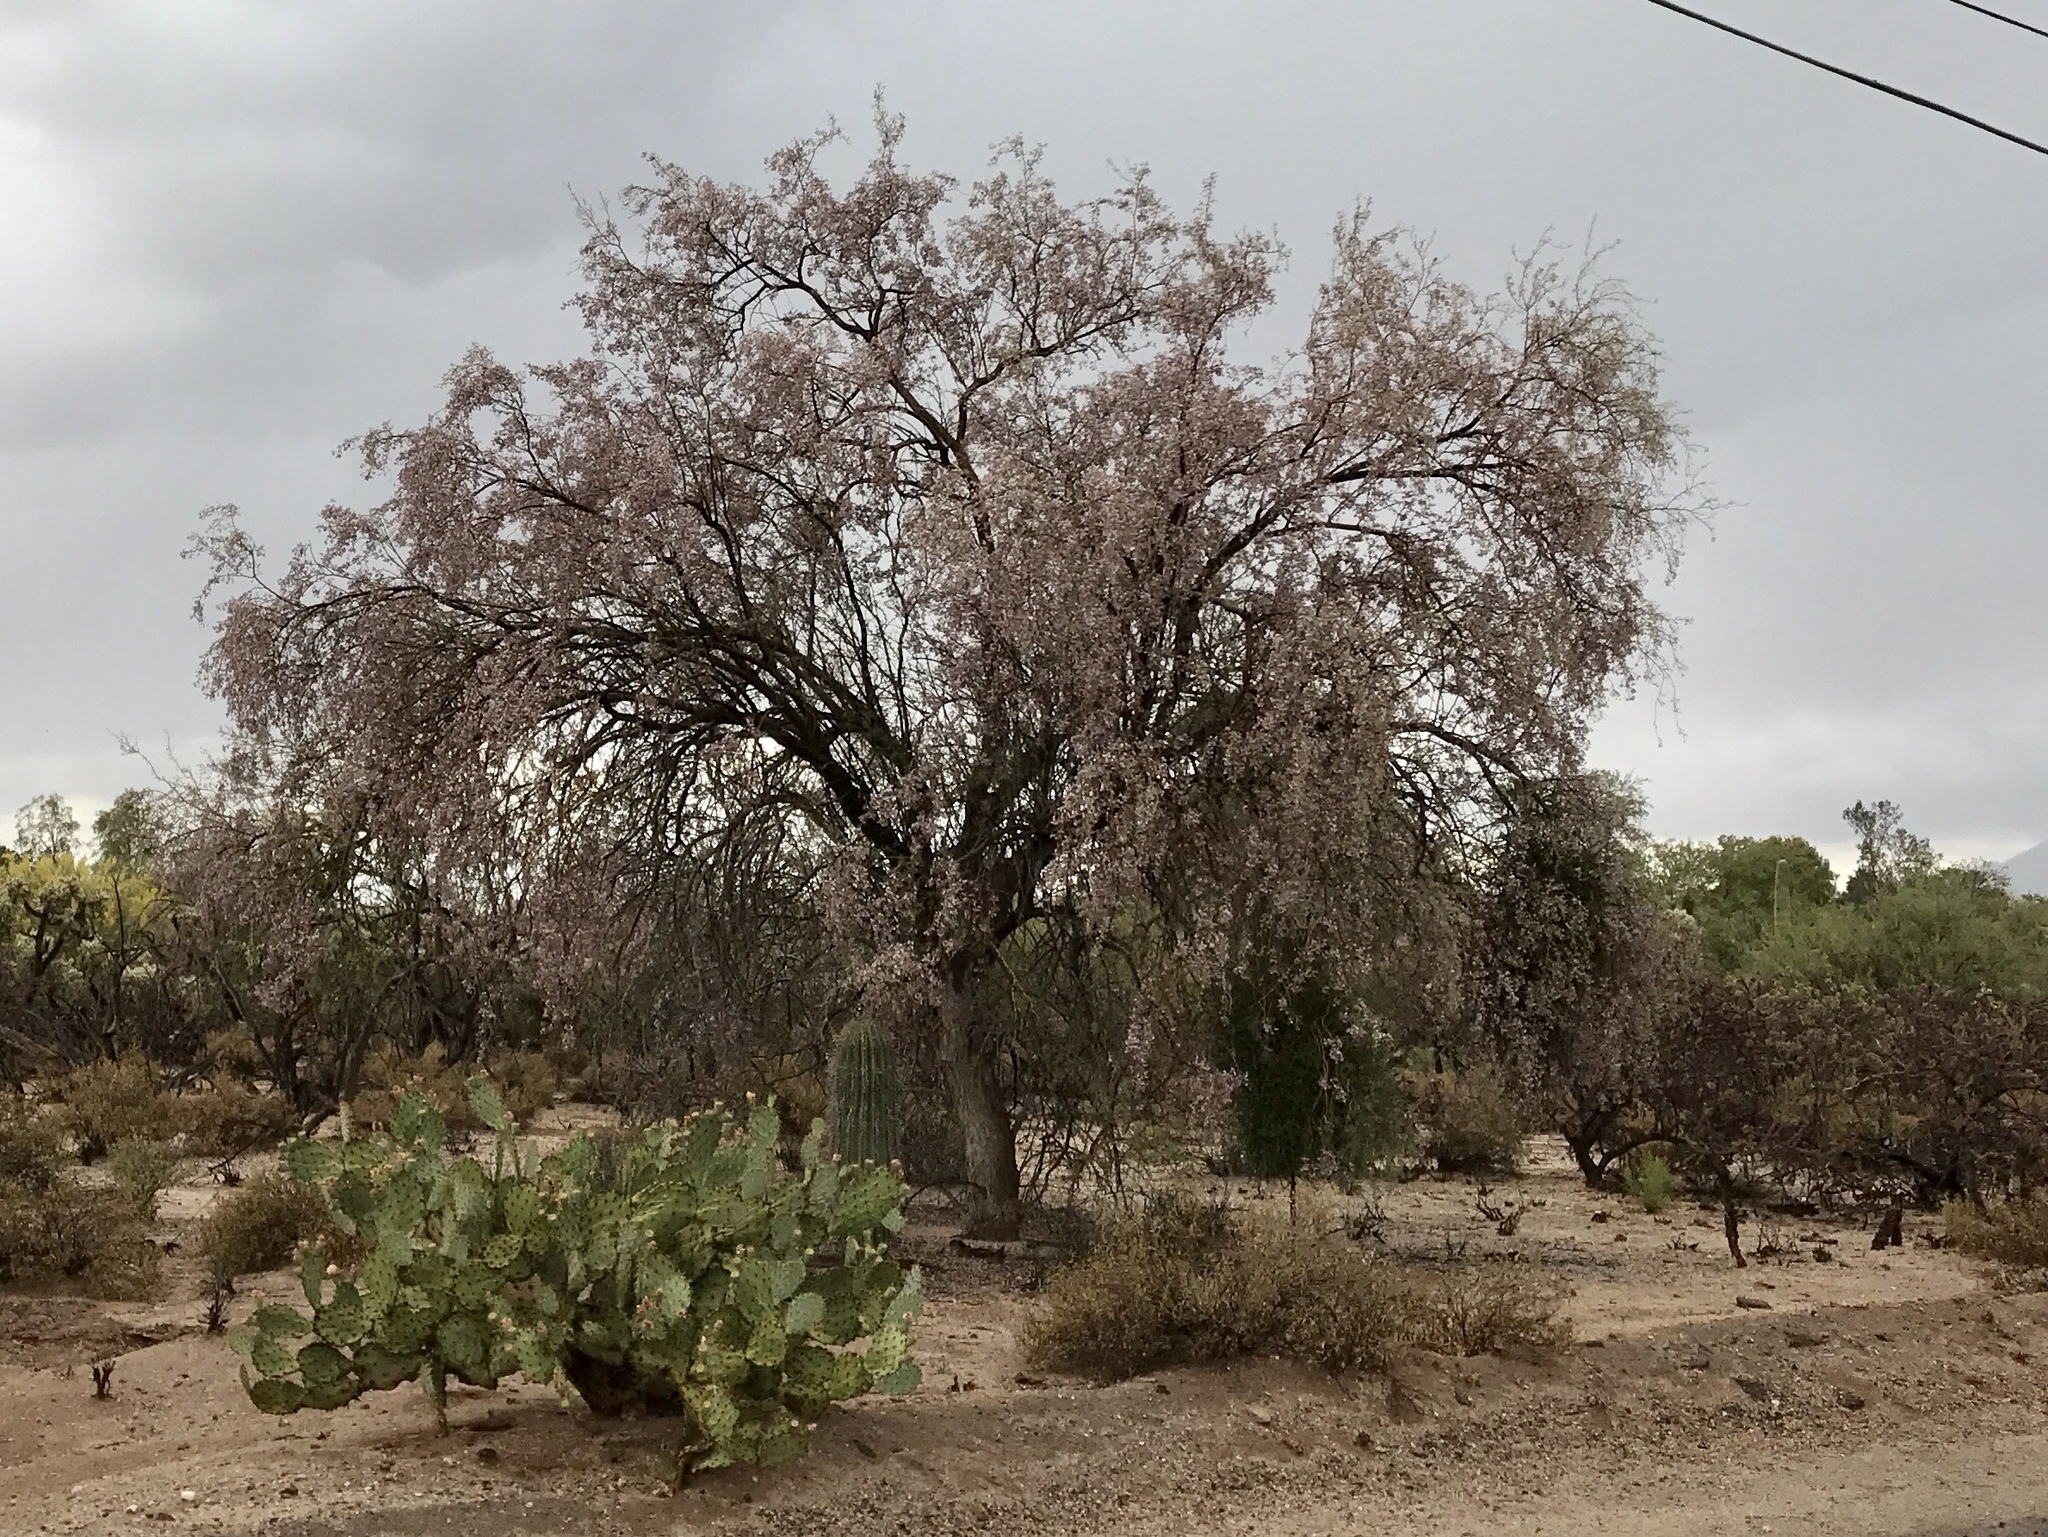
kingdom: Plantae
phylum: Tracheophyta
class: Magnoliopsida
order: Fabales
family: Fabaceae
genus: Olneya
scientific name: Olneya tesota
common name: Desert ironwood
